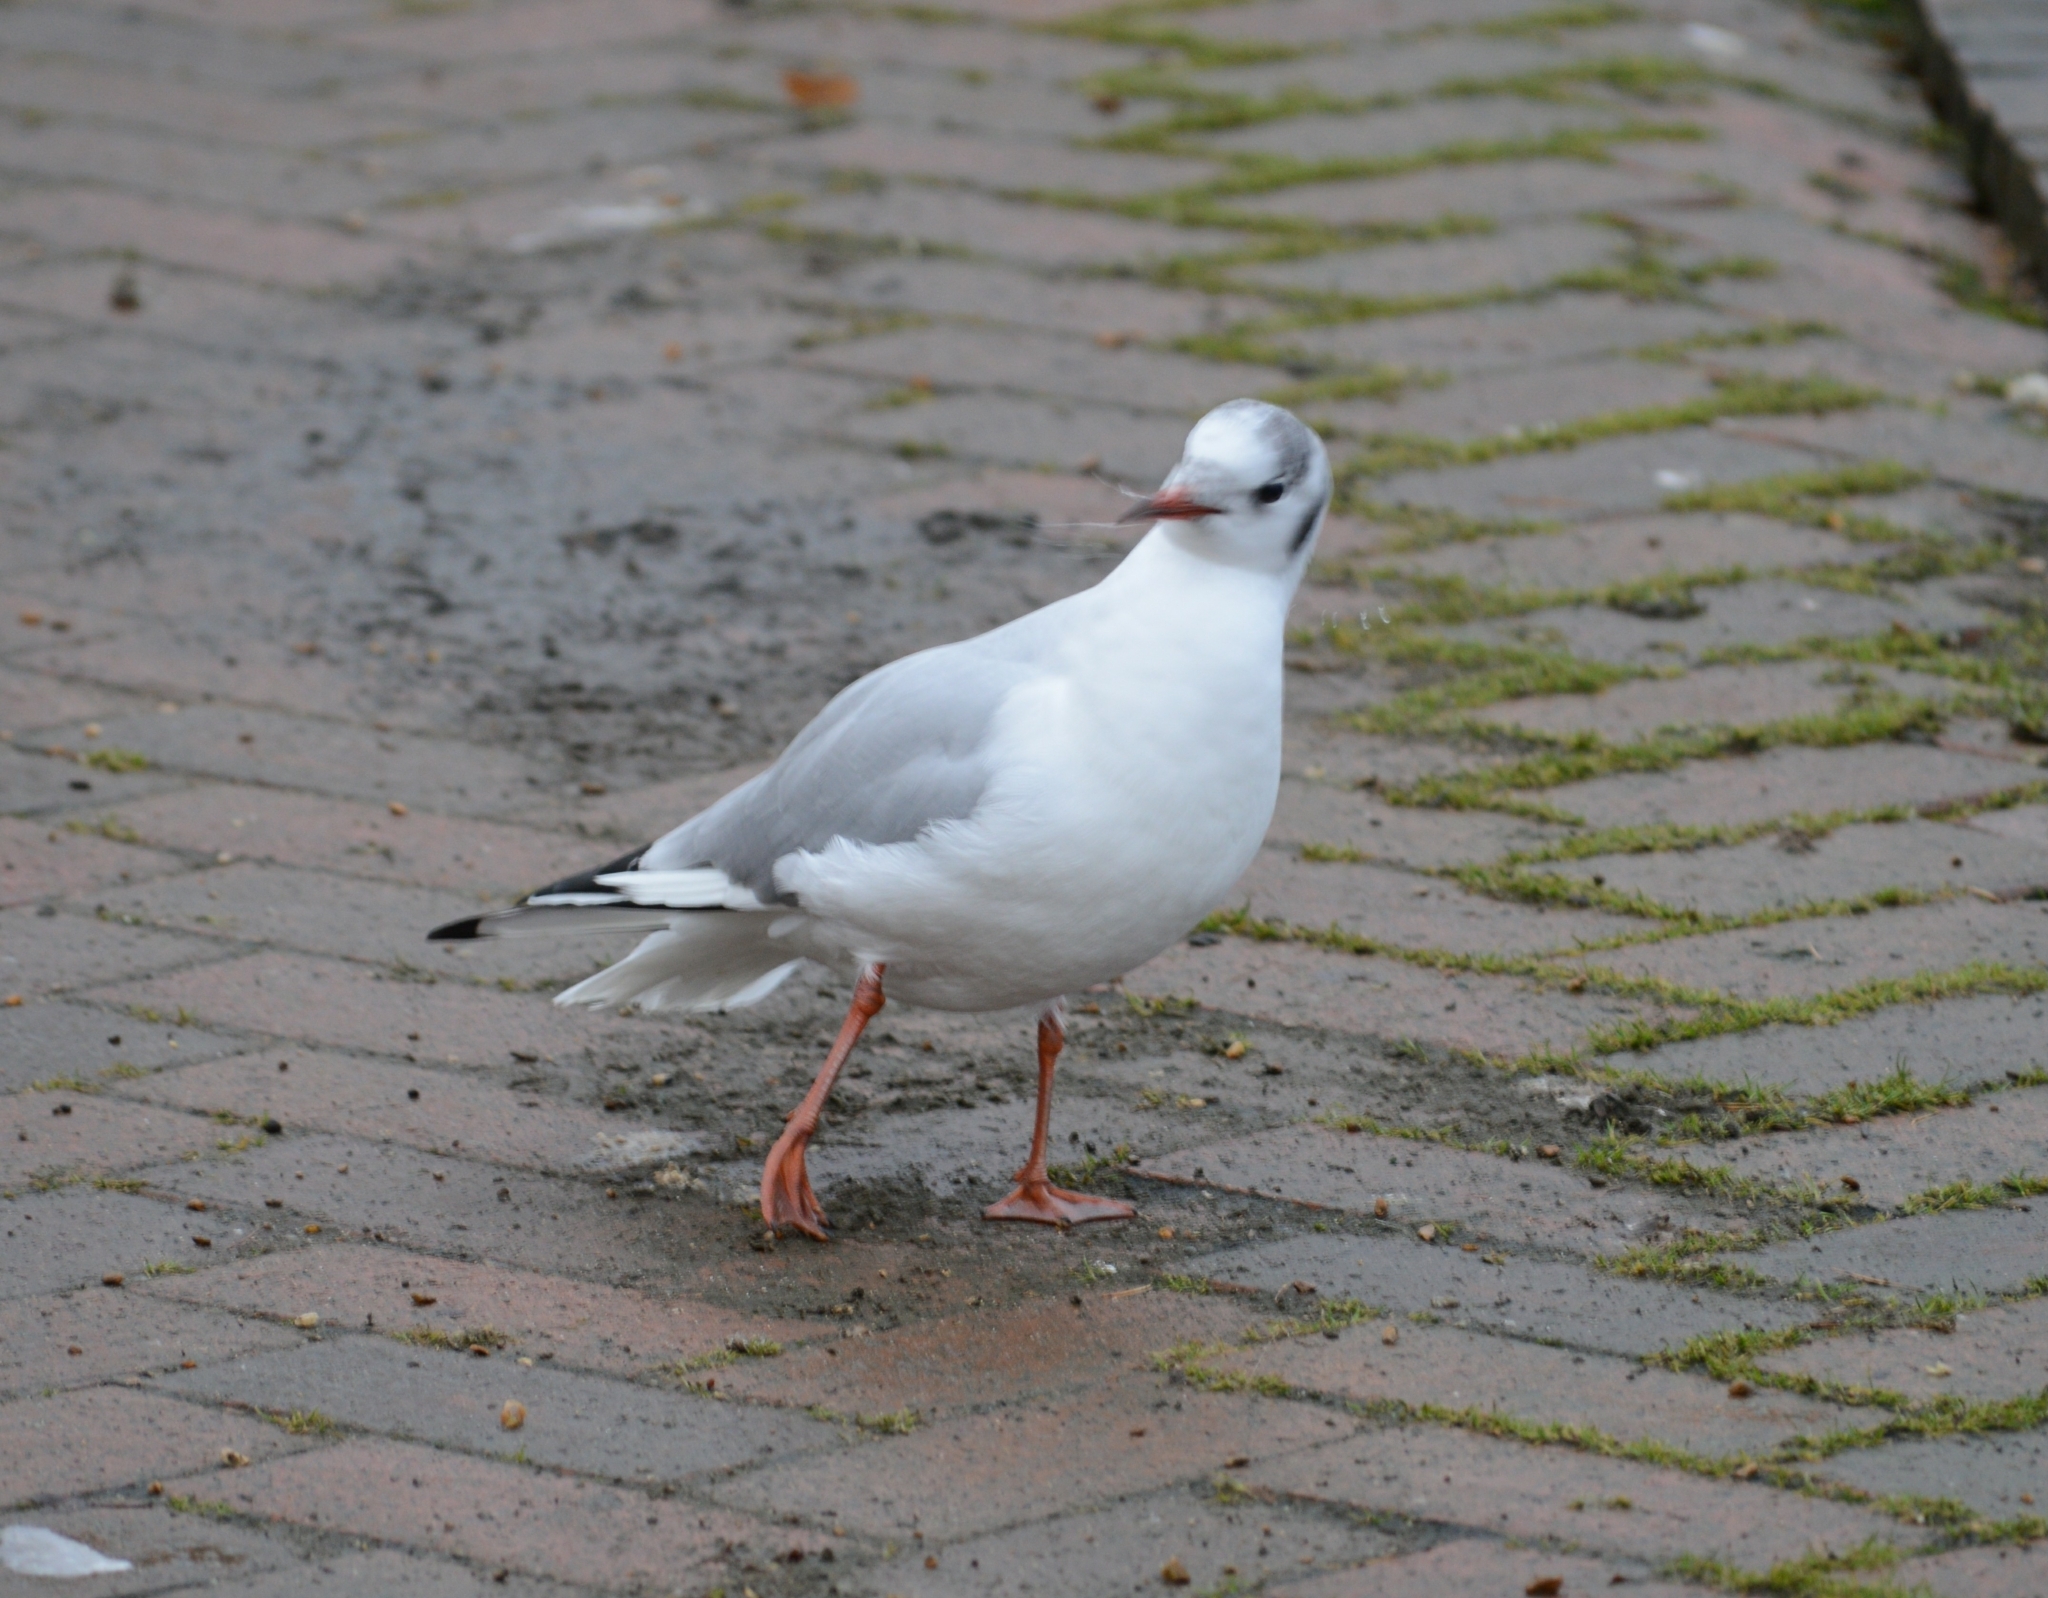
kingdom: Animalia
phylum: Chordata
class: Aves
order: Charadriiformes
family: Laridae
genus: Chroicocephalus
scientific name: Chroicocephalus ridibundus
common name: Black-headed gull
